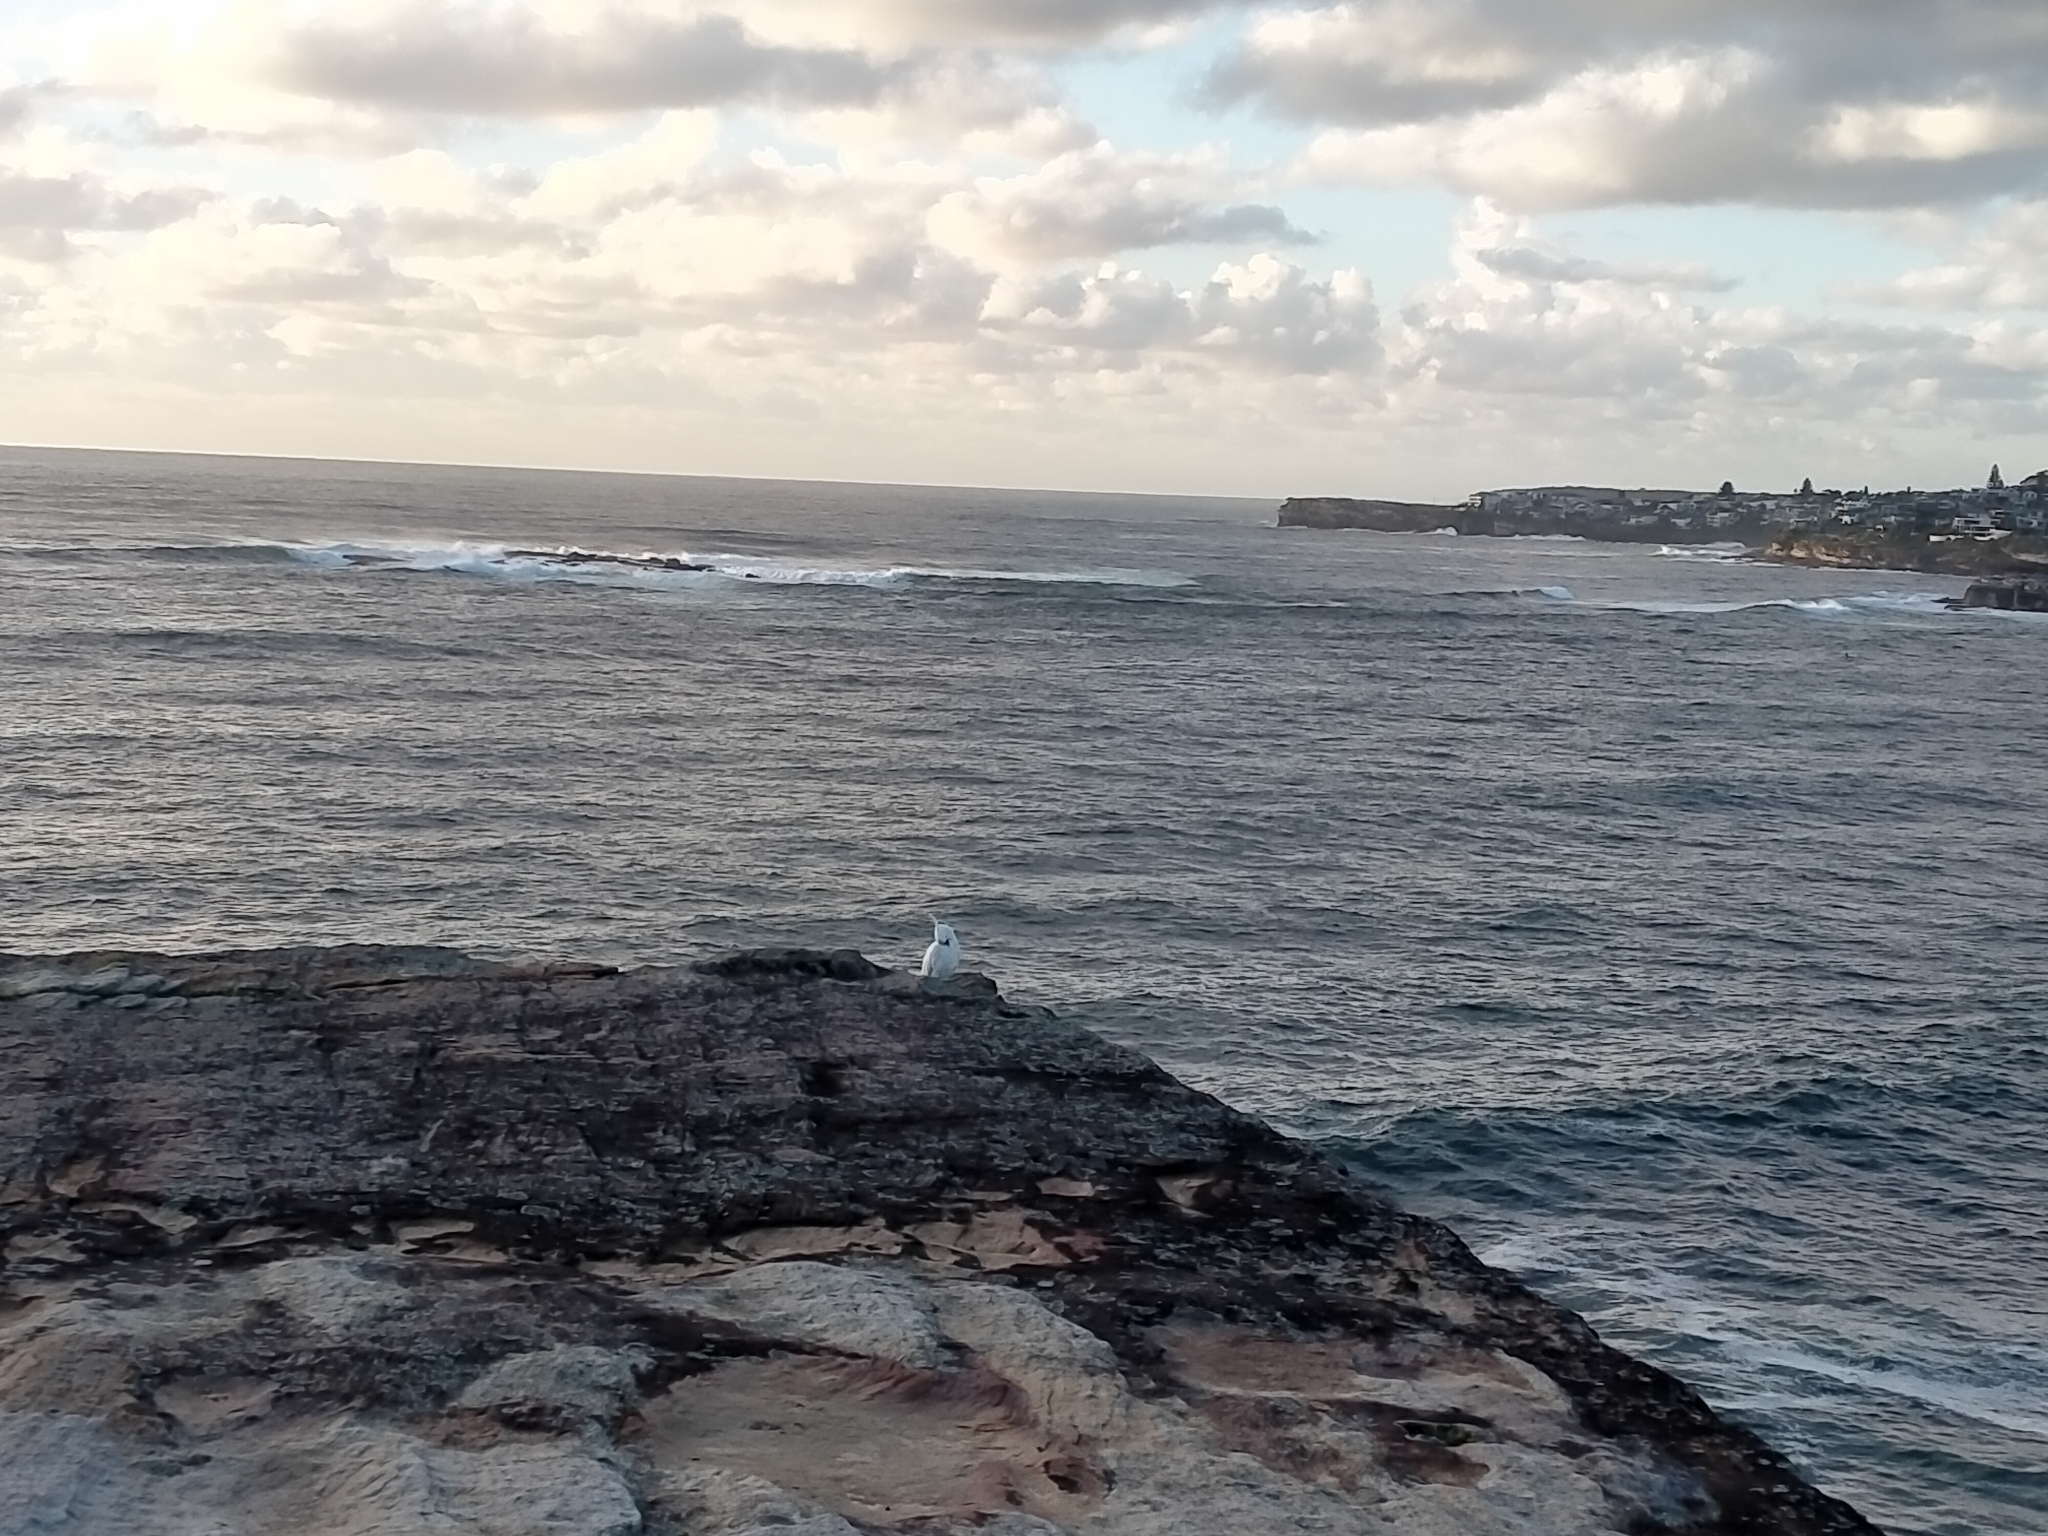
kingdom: Animalia
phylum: Chordata
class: Aves
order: Psittaciformes
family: Psittacidae
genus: Cacatua
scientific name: Cacatua galerita
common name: Sulphur-crested cockatoo
